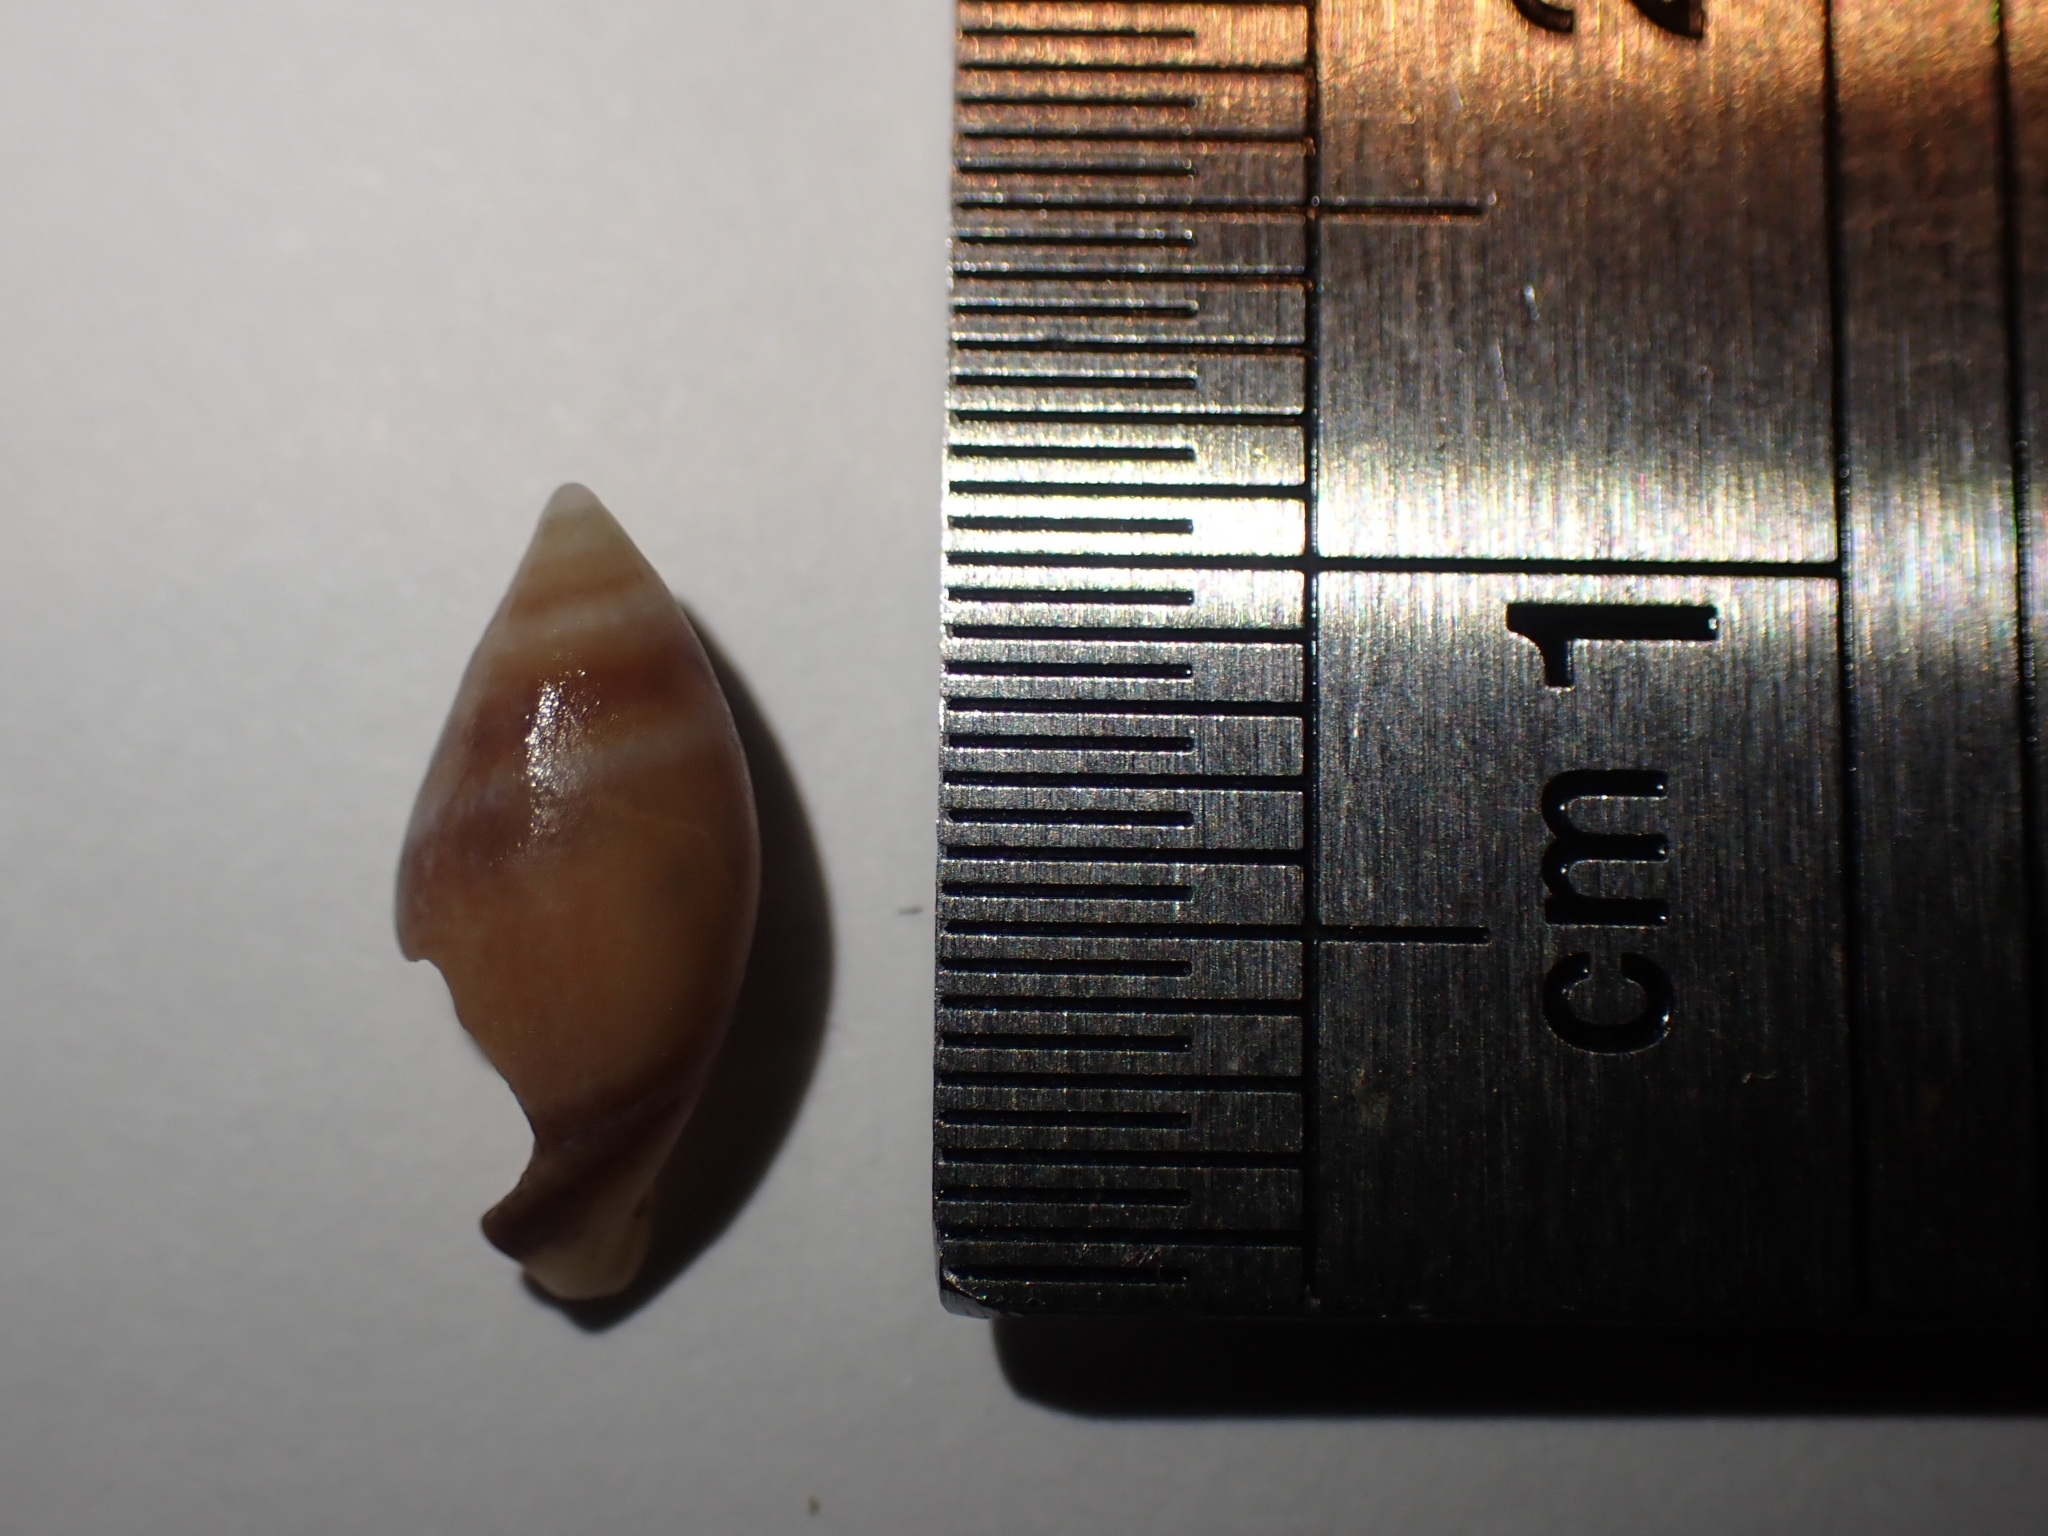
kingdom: Animalia
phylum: Mollusca
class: Gastropoda
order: Neogastropoda
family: Ancillariidae
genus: Amalda
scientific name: Amalda australis
